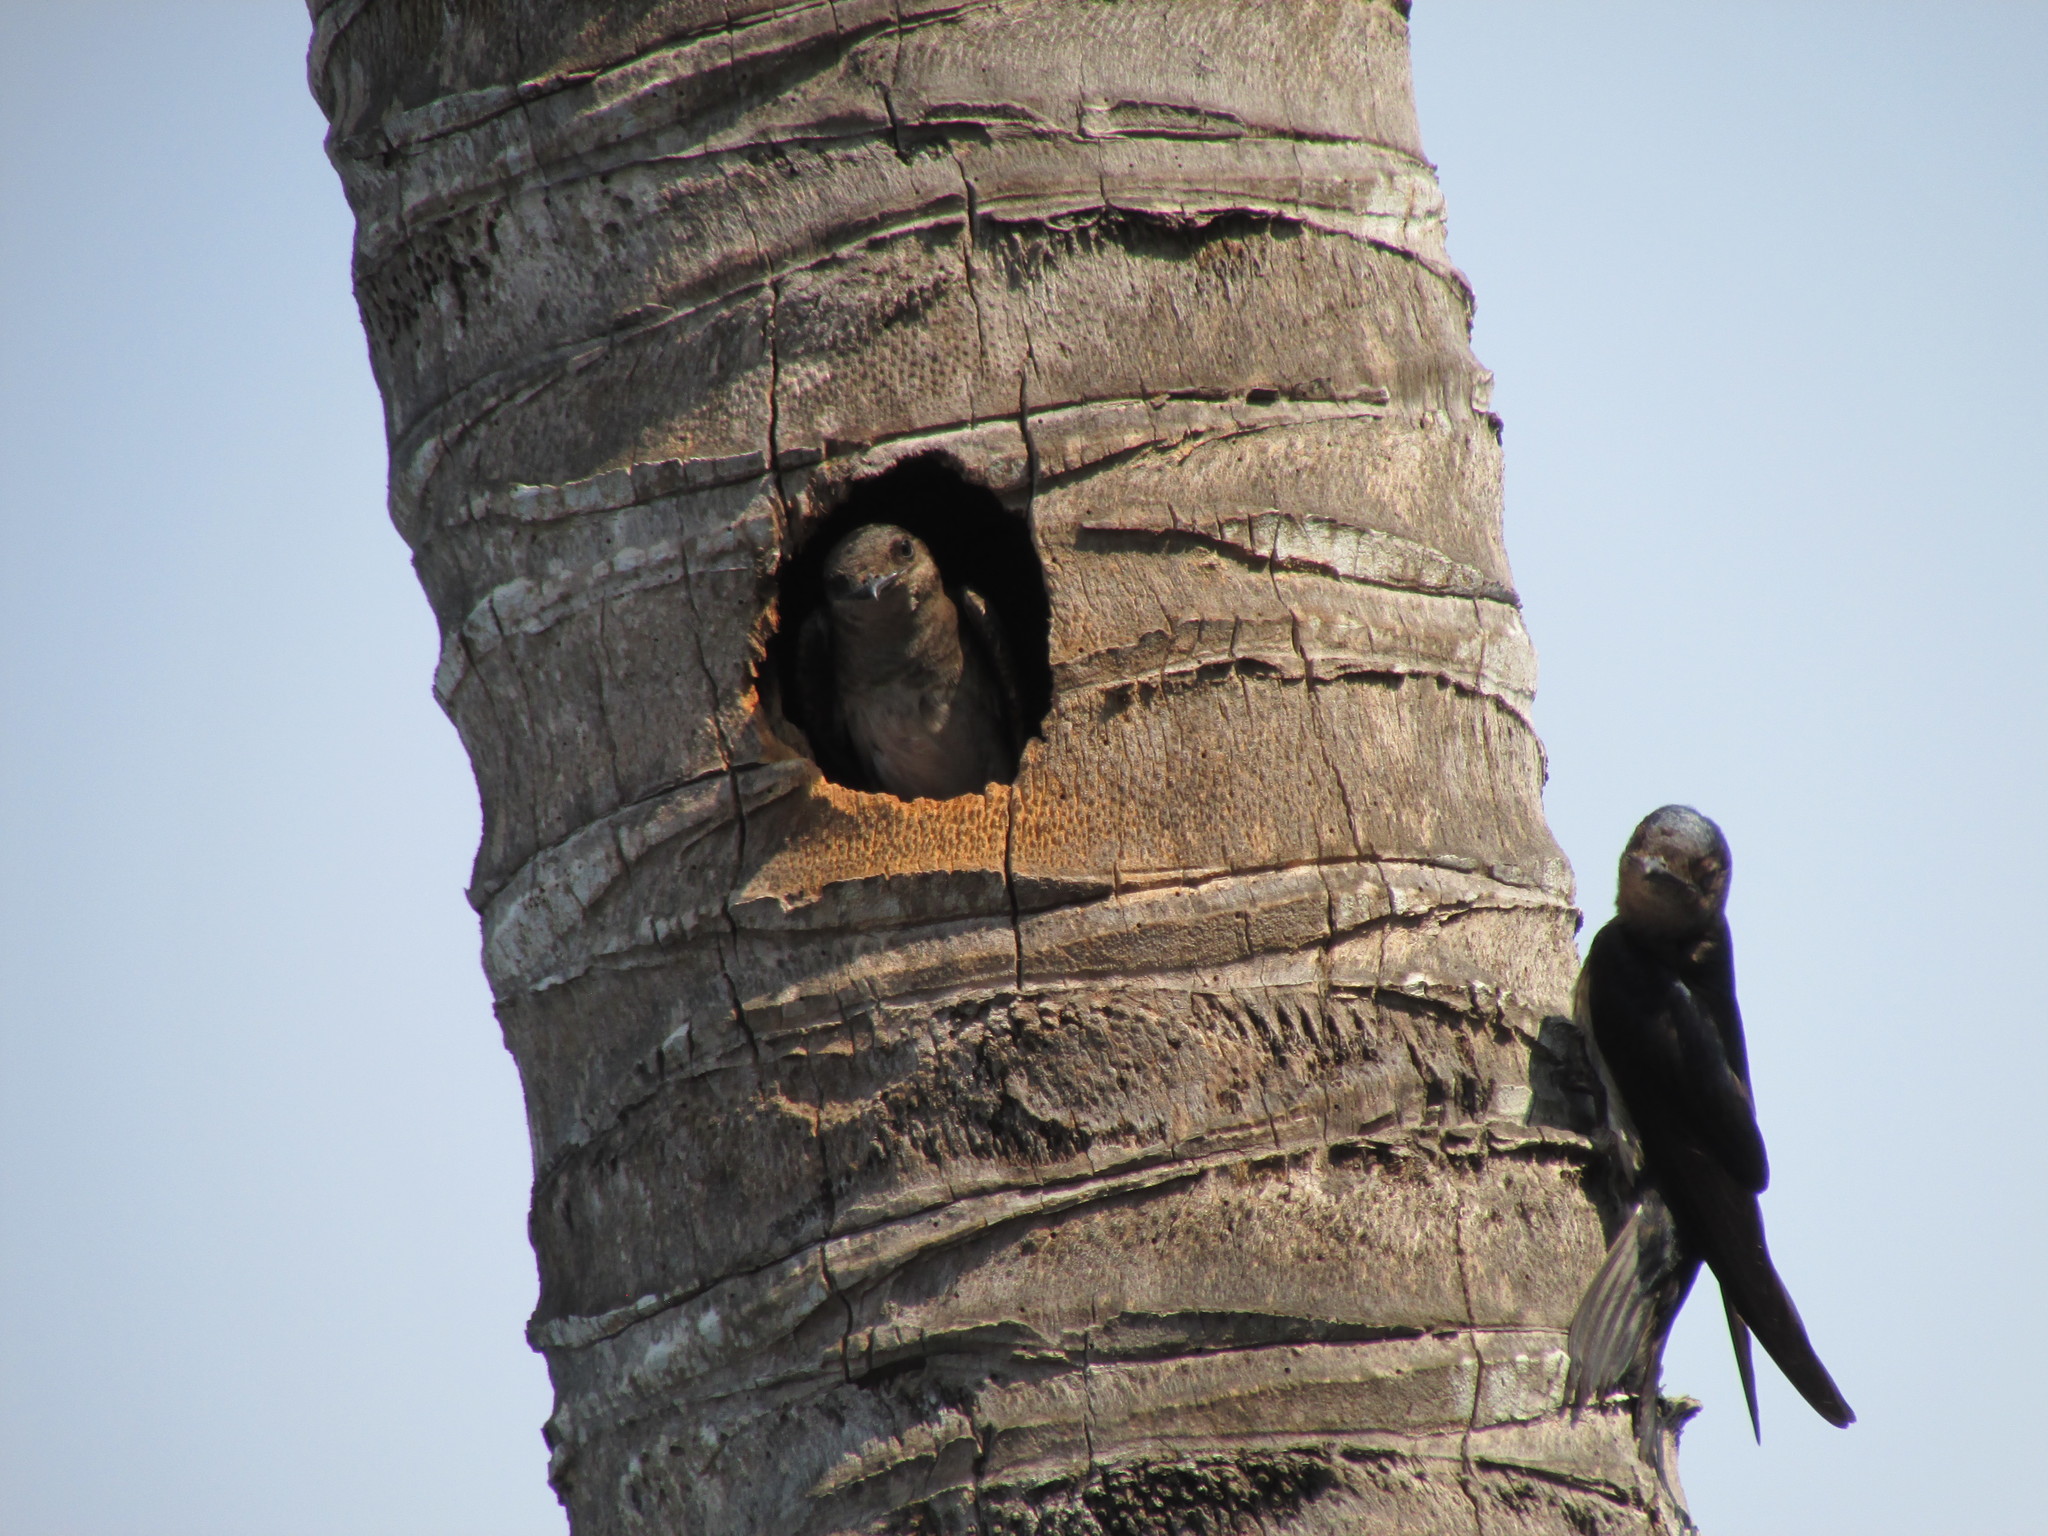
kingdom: Animalia
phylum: Chordata
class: Aves
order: Passeriformes
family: Hirundinidae
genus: Progne
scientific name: Progne chalybea
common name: Grey-breasted martin
